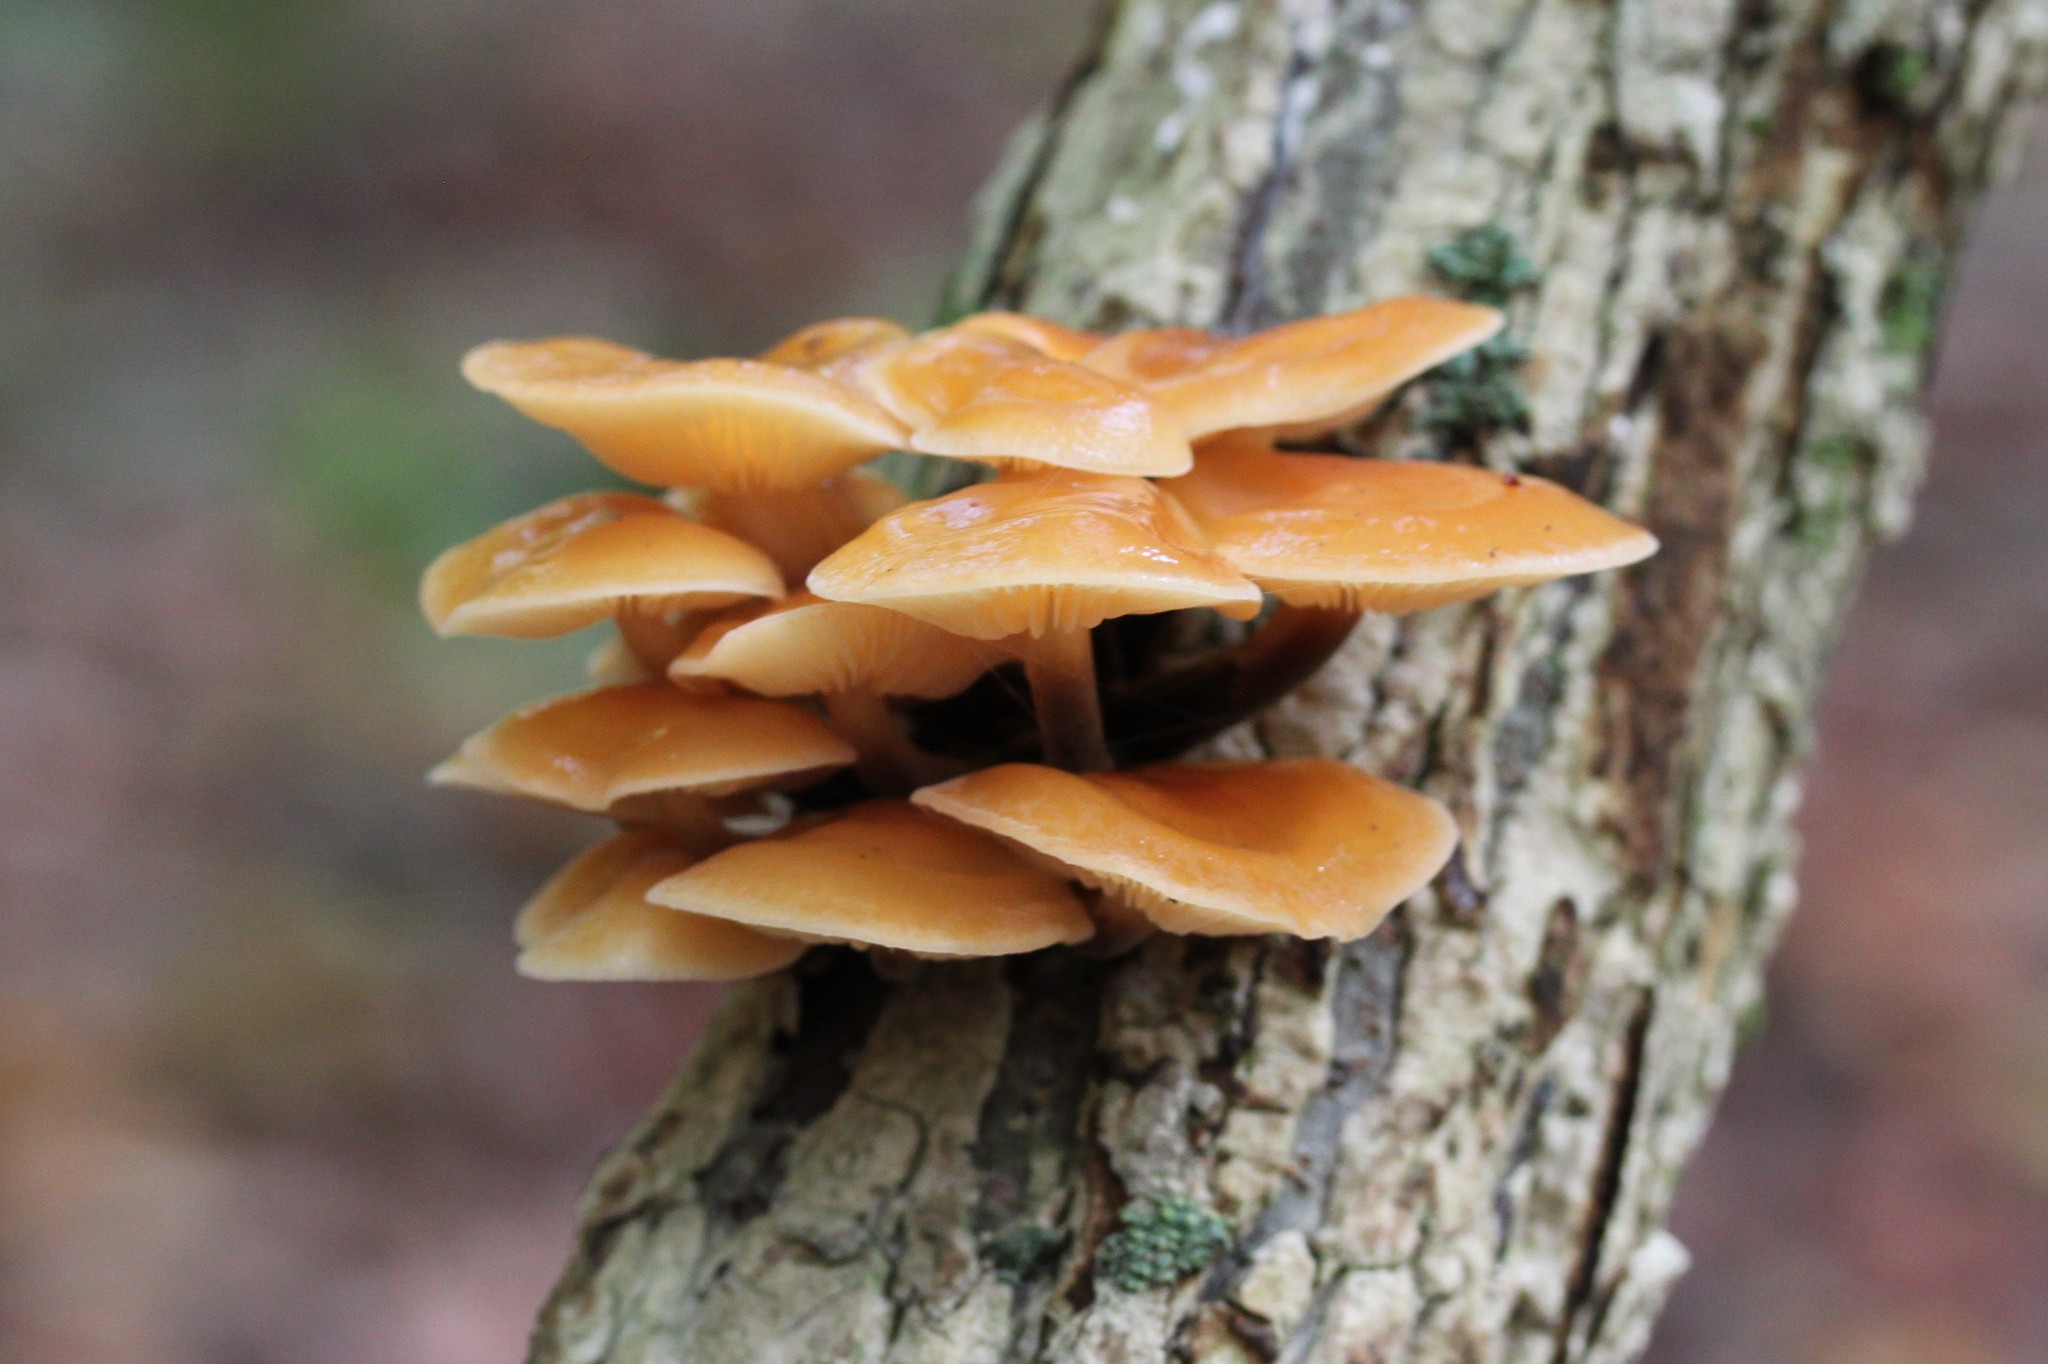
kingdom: Fungi
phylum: Basidiomycota
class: Agaricomycetes
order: Agaricales
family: Physalacriaceae
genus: Flammulina
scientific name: Flammulina velutipes
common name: Velvet shank
